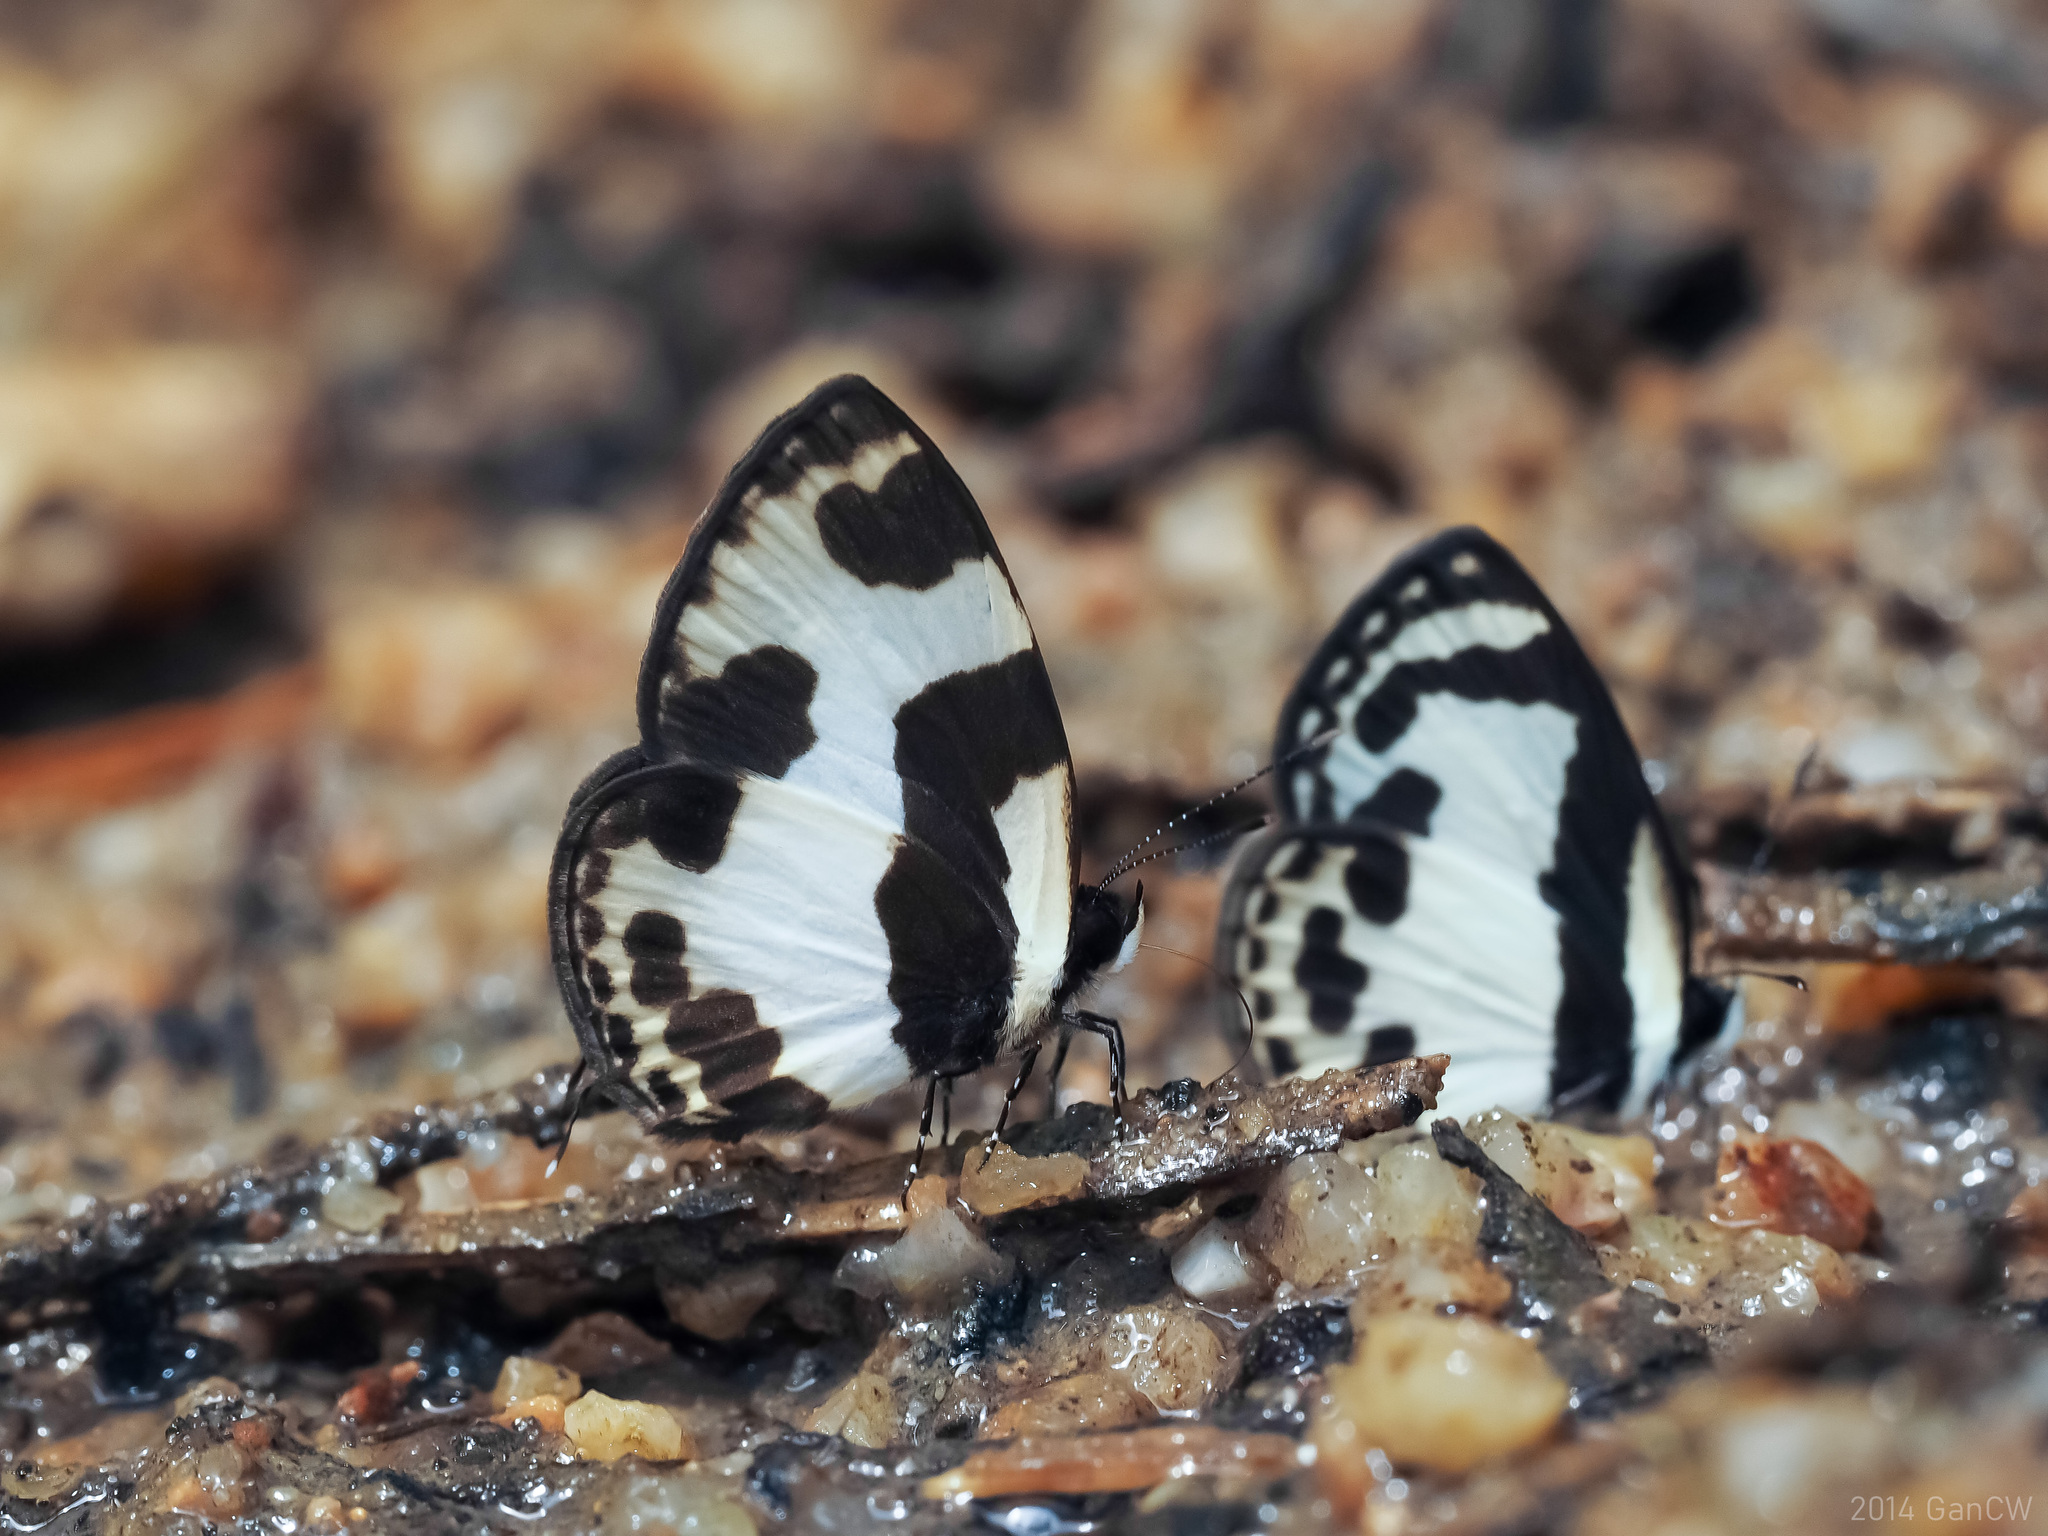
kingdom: Animalia
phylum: Arthropoda
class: Insecta
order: Lepidoptera
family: Lycaenidae
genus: Caleta
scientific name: Caleta elna
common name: Elbowed pierrot
